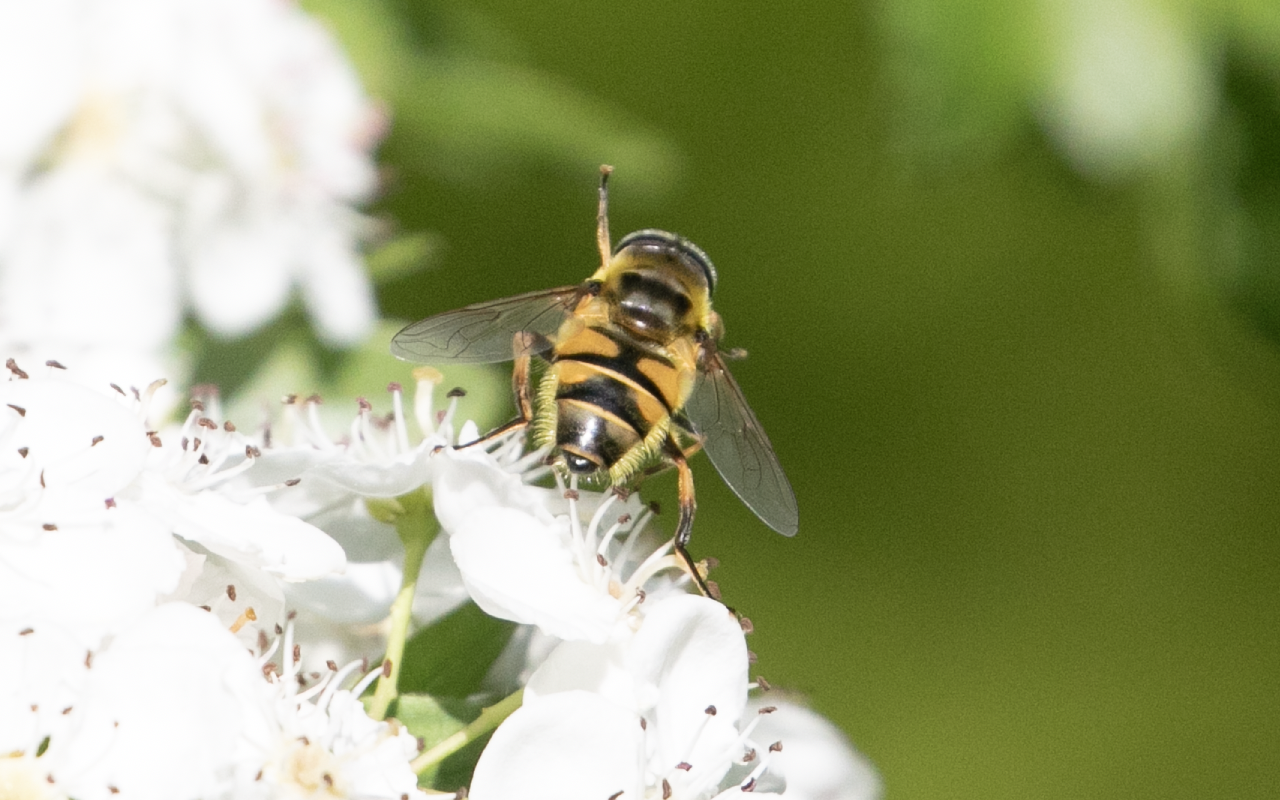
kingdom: Animalia
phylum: Arthropoda
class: Insecta
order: Diptera
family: Syrphidae
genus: Myathropa
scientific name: Myathropa florea
